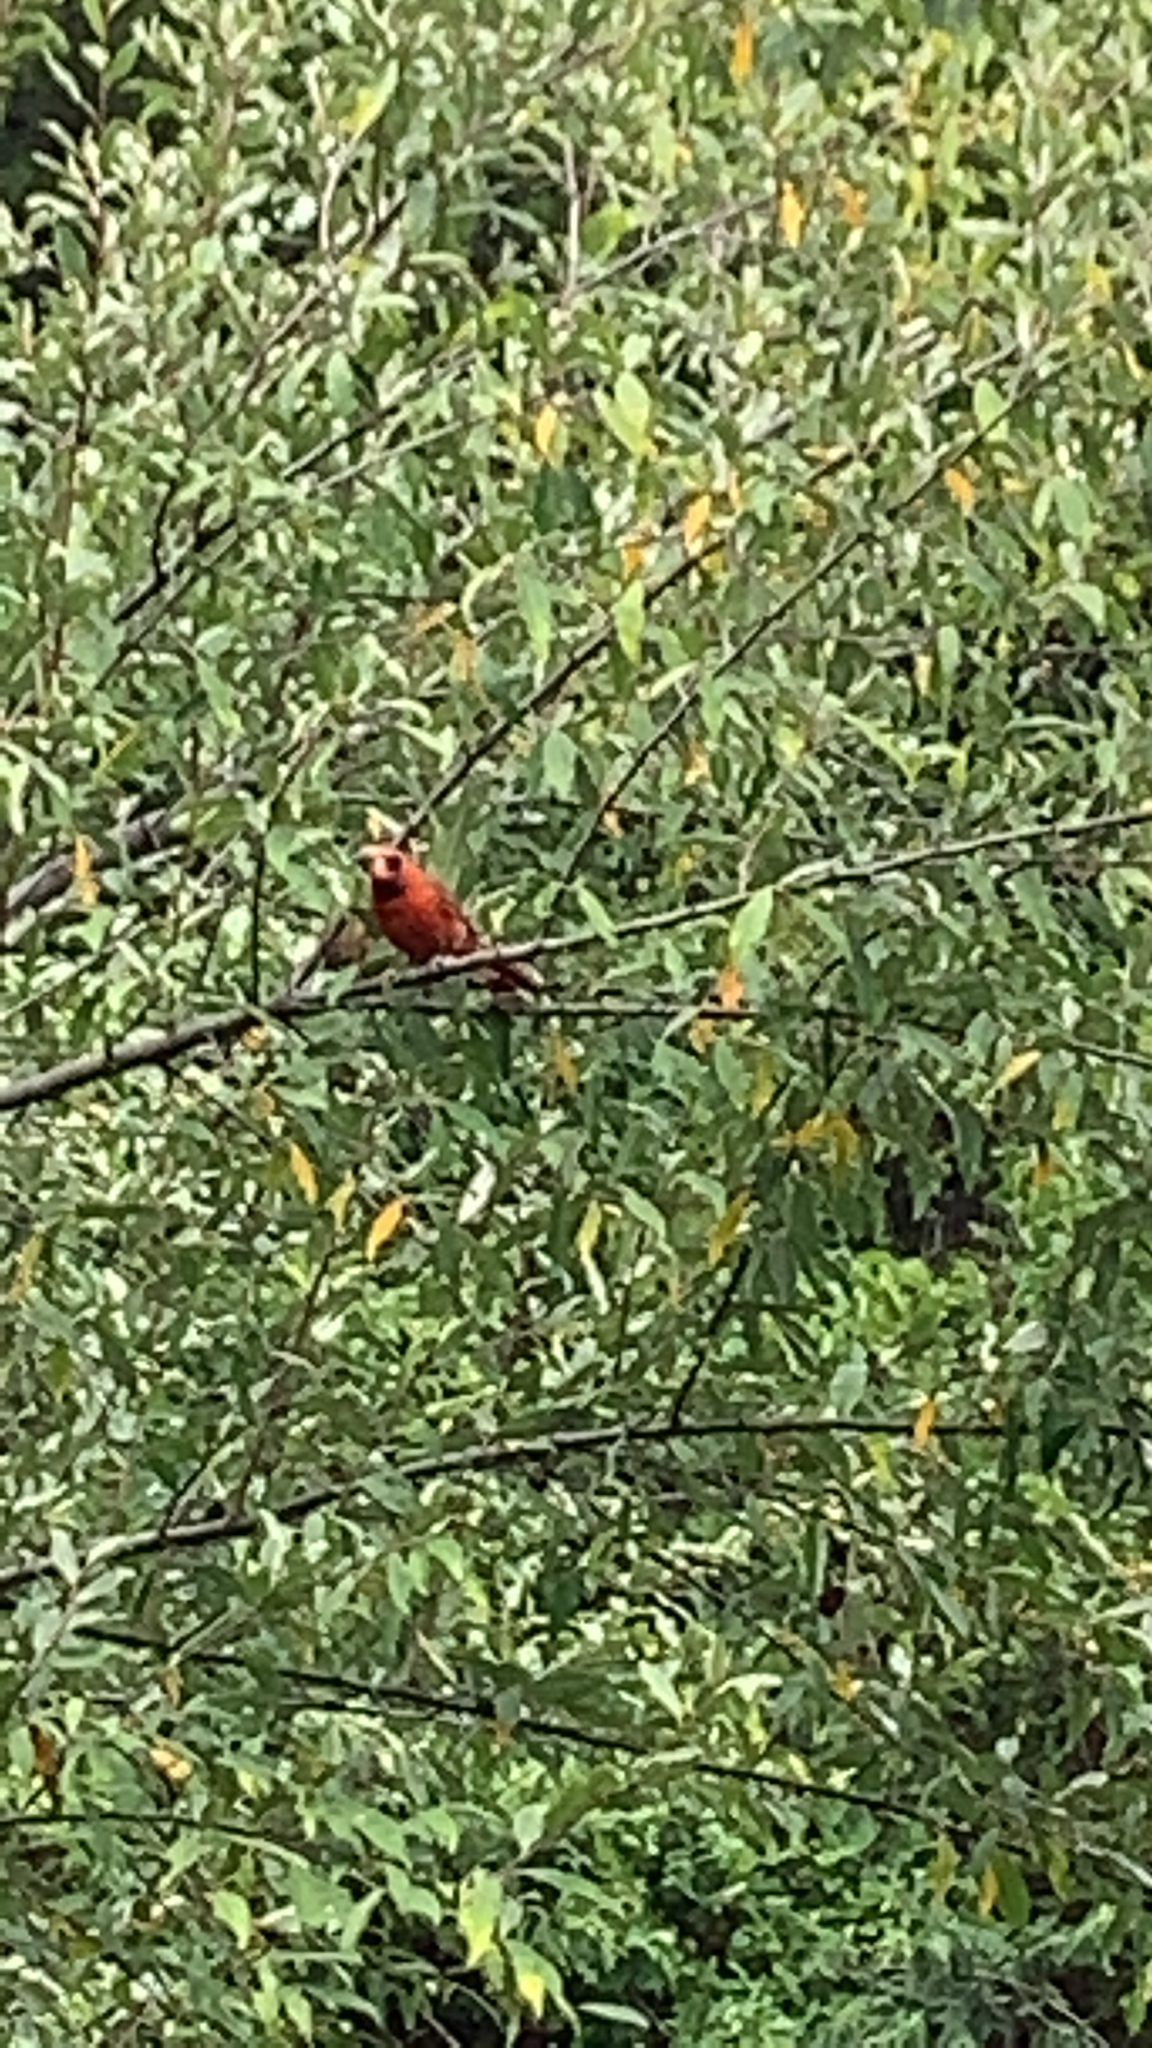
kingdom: Animalia
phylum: Chordata
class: Aves
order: Passeriformes
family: Cardinalidae
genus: Cardinalis
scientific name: Cardinalis cardinalis
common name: Northern cardinal
